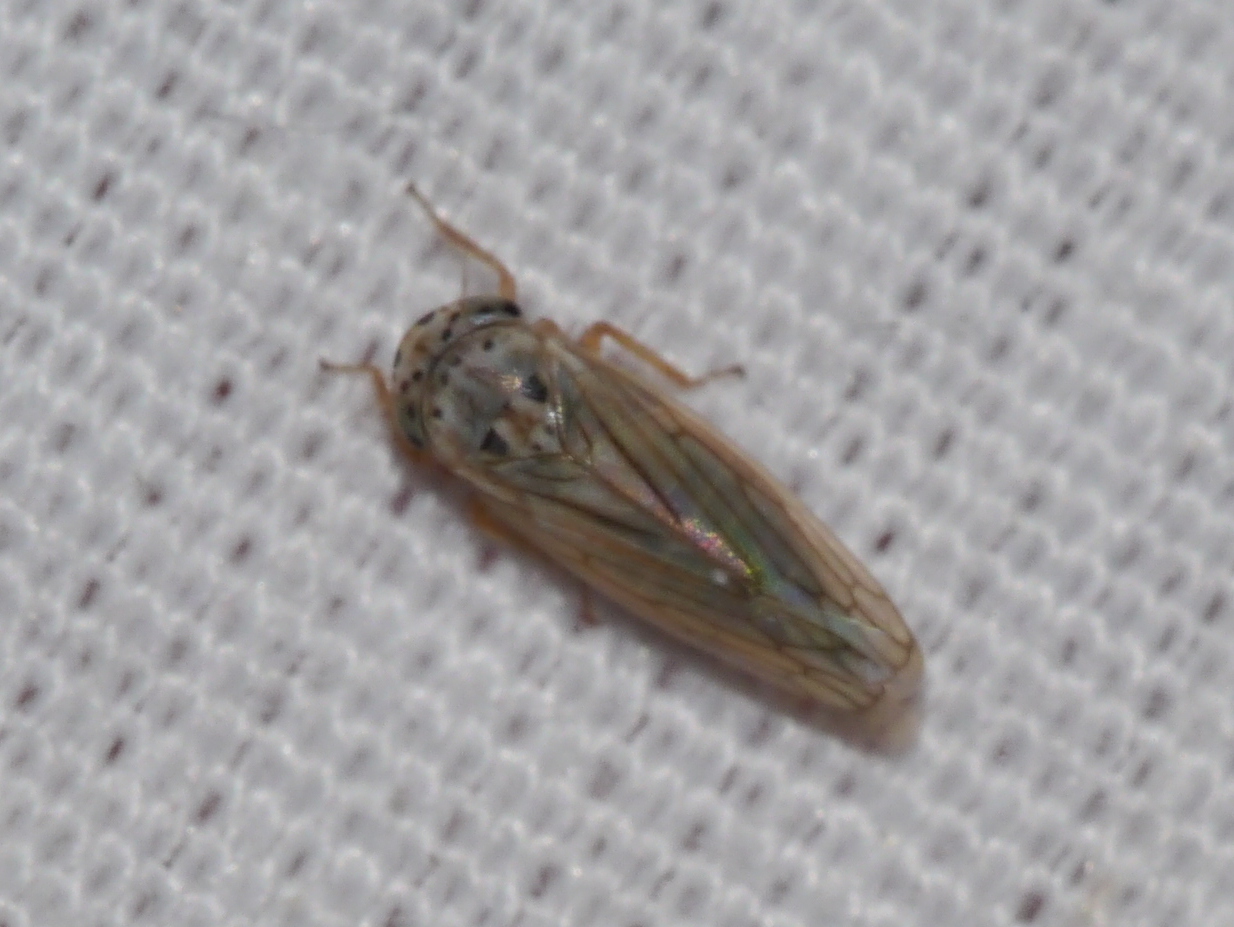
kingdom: Animalia
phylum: Arthropoda
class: Insecta
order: Hemiptera
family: Cicadellidae
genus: Exitianus
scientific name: Exitianus exitiosus
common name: Gray lawn leafhopper
